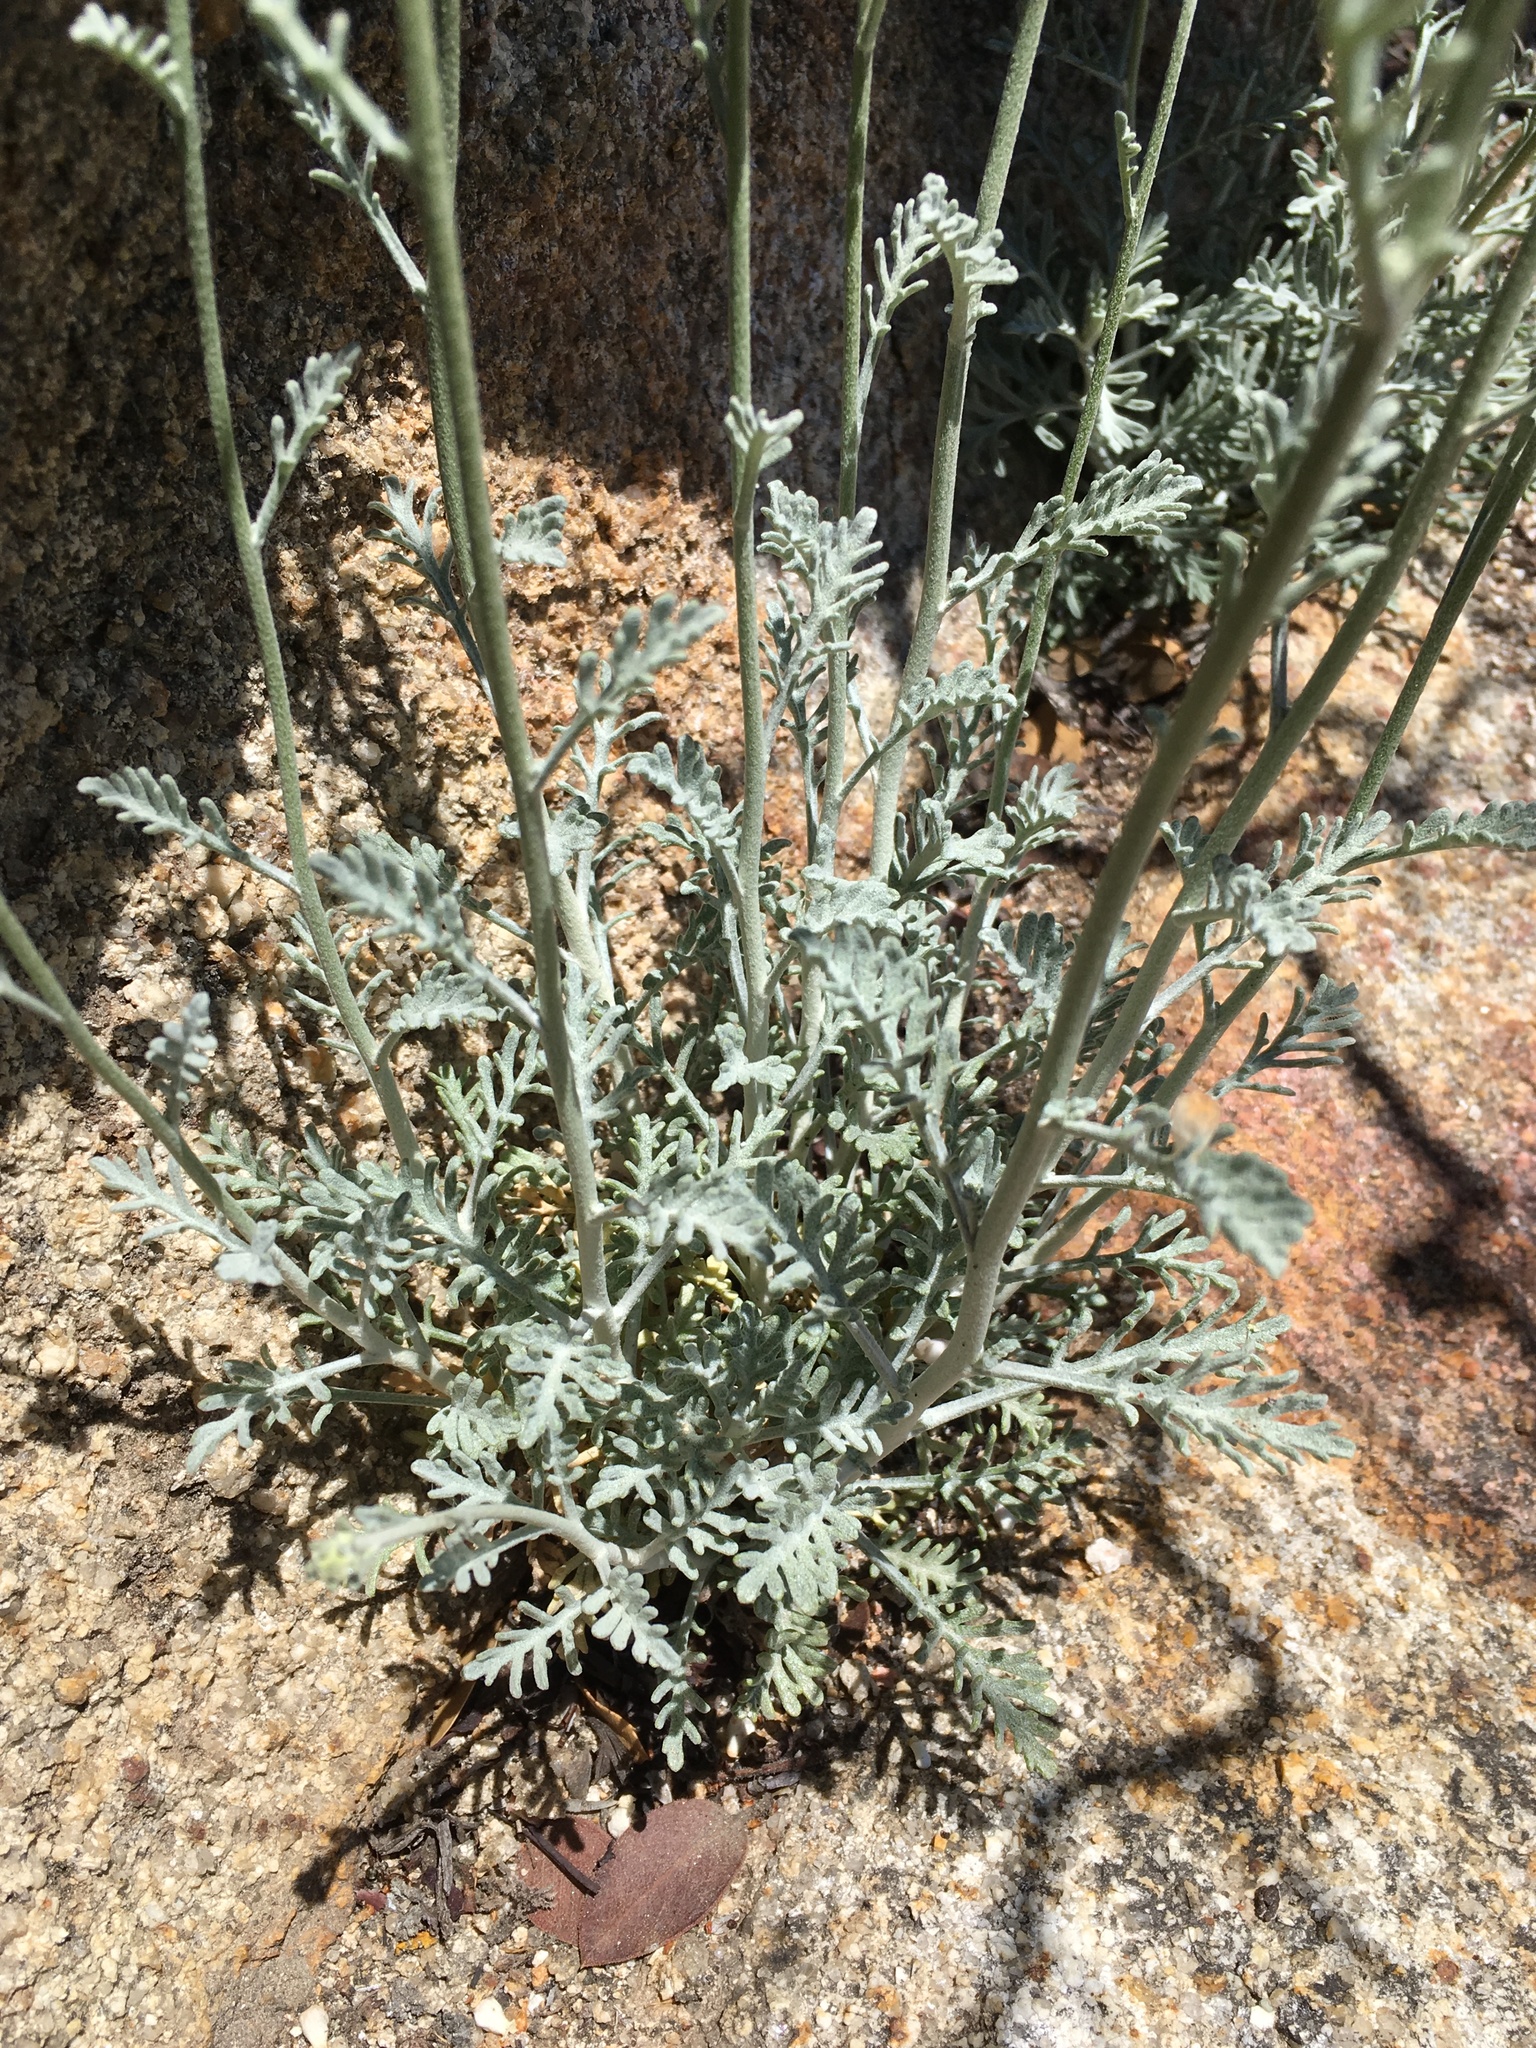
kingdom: Plantae
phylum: Tracheophyta
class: Magnoliopsida
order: Asterales
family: Asteraceae
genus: Chaenactis
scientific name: Chaenactis parishii
